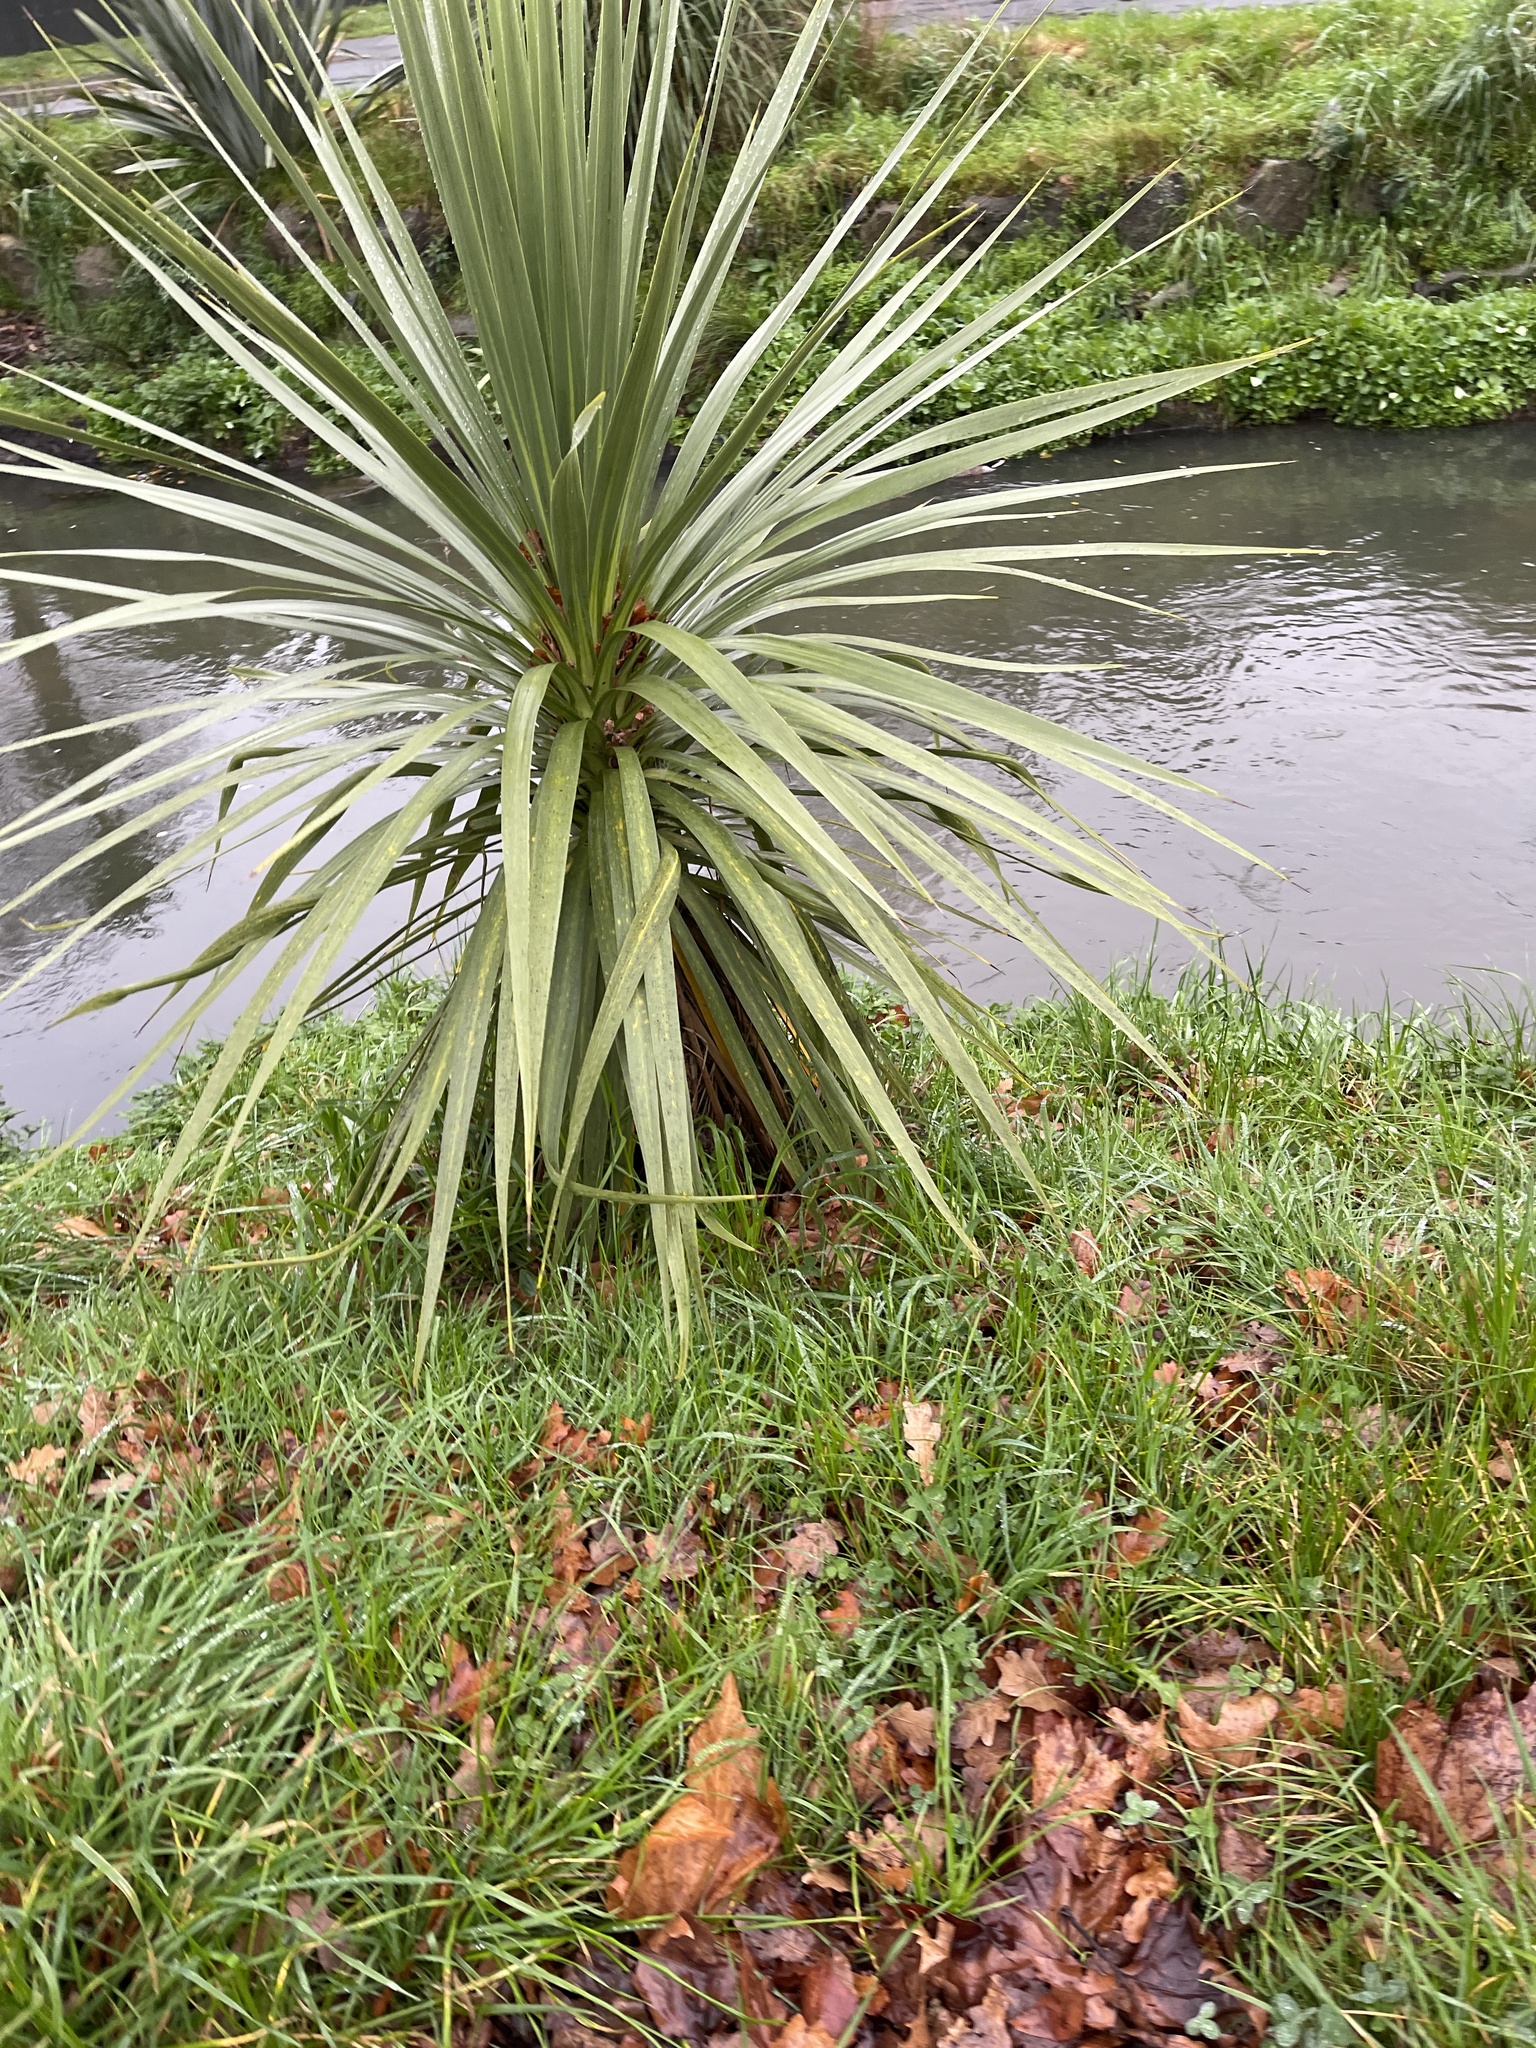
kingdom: Plantae
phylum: Tracheophyta
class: Liliopsida
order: Asparagales
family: Asparagaceae
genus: Cordyline
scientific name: Cordyline australis
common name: Cabbage-palm
